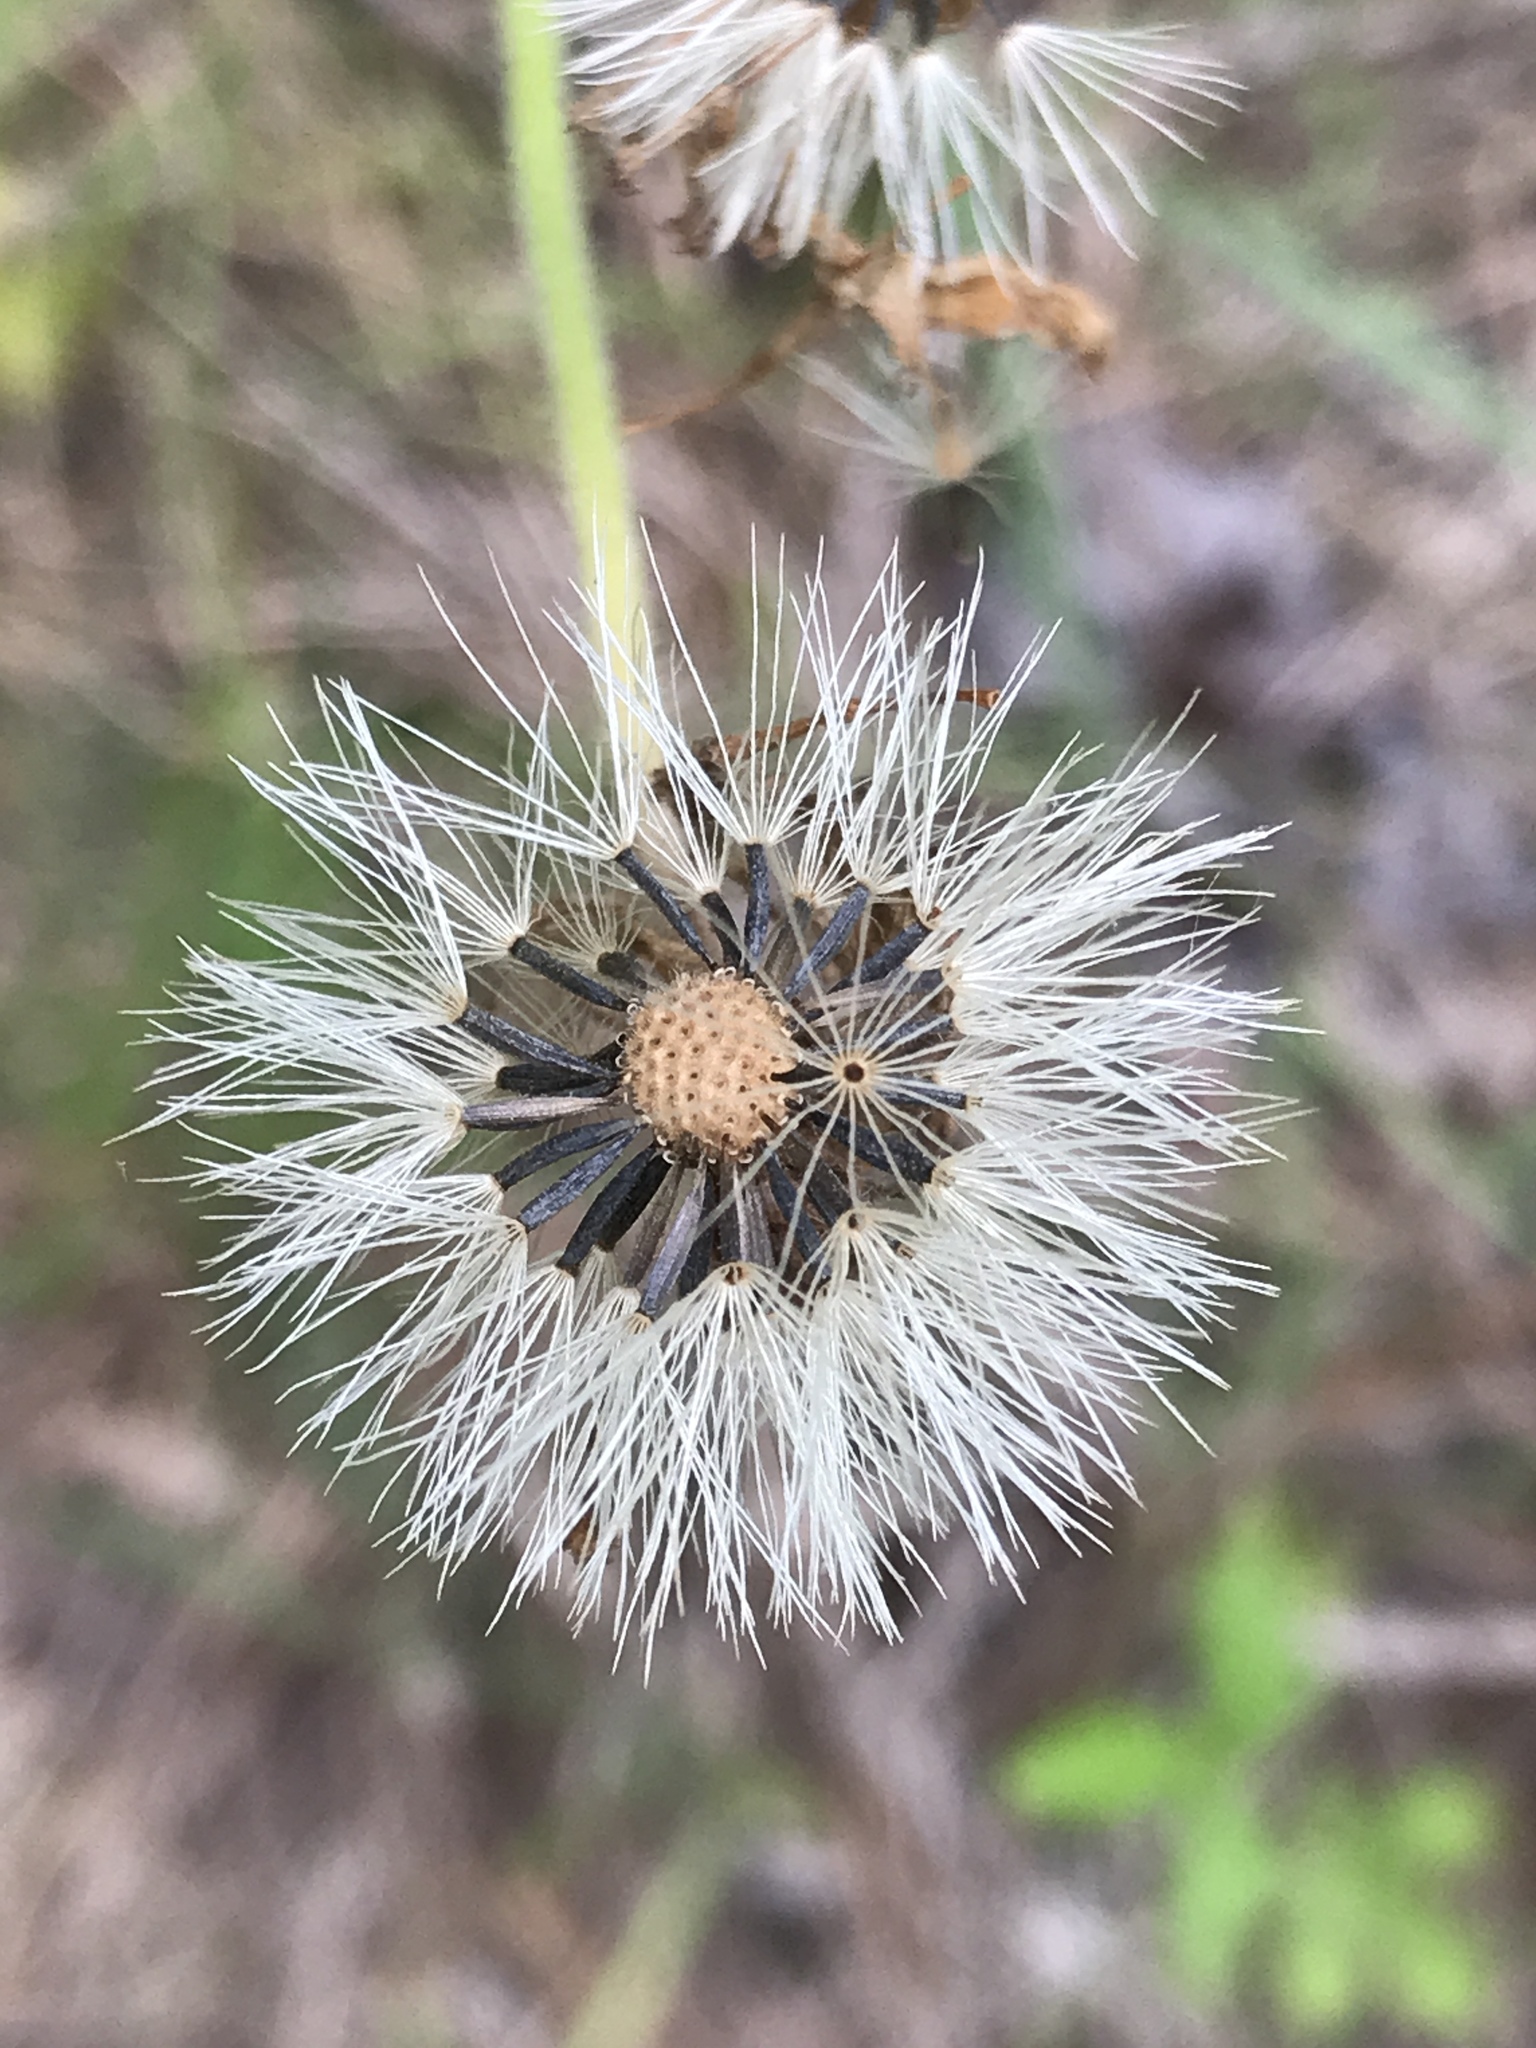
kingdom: Plantae
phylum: Tracheophyta
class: Magnoliopsida
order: Asterales
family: Asteraceae
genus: Arnica
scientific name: Arnica acaulis
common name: Common leopardbane
